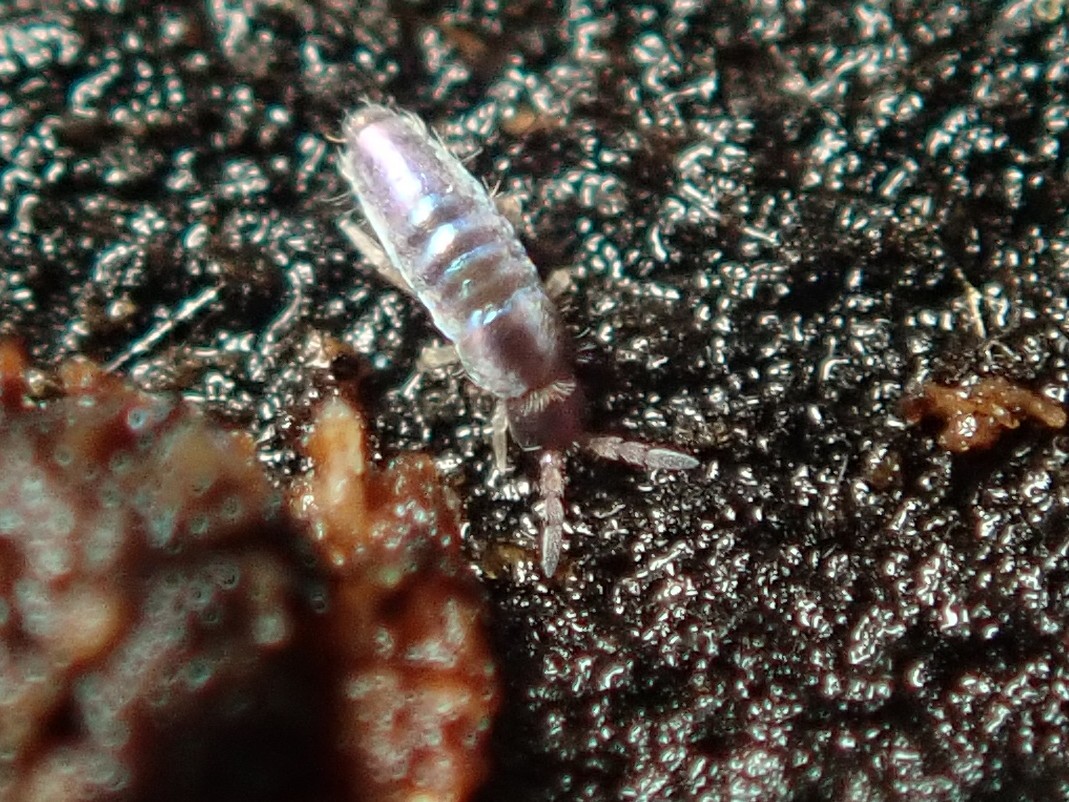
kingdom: Animalia
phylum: Arthropoda
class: Collembola
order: Entomobryomorpha
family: Entomobryidae
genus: Lepidocyrtus
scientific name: Lepidocyrtus cyaneus
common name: Springtail
